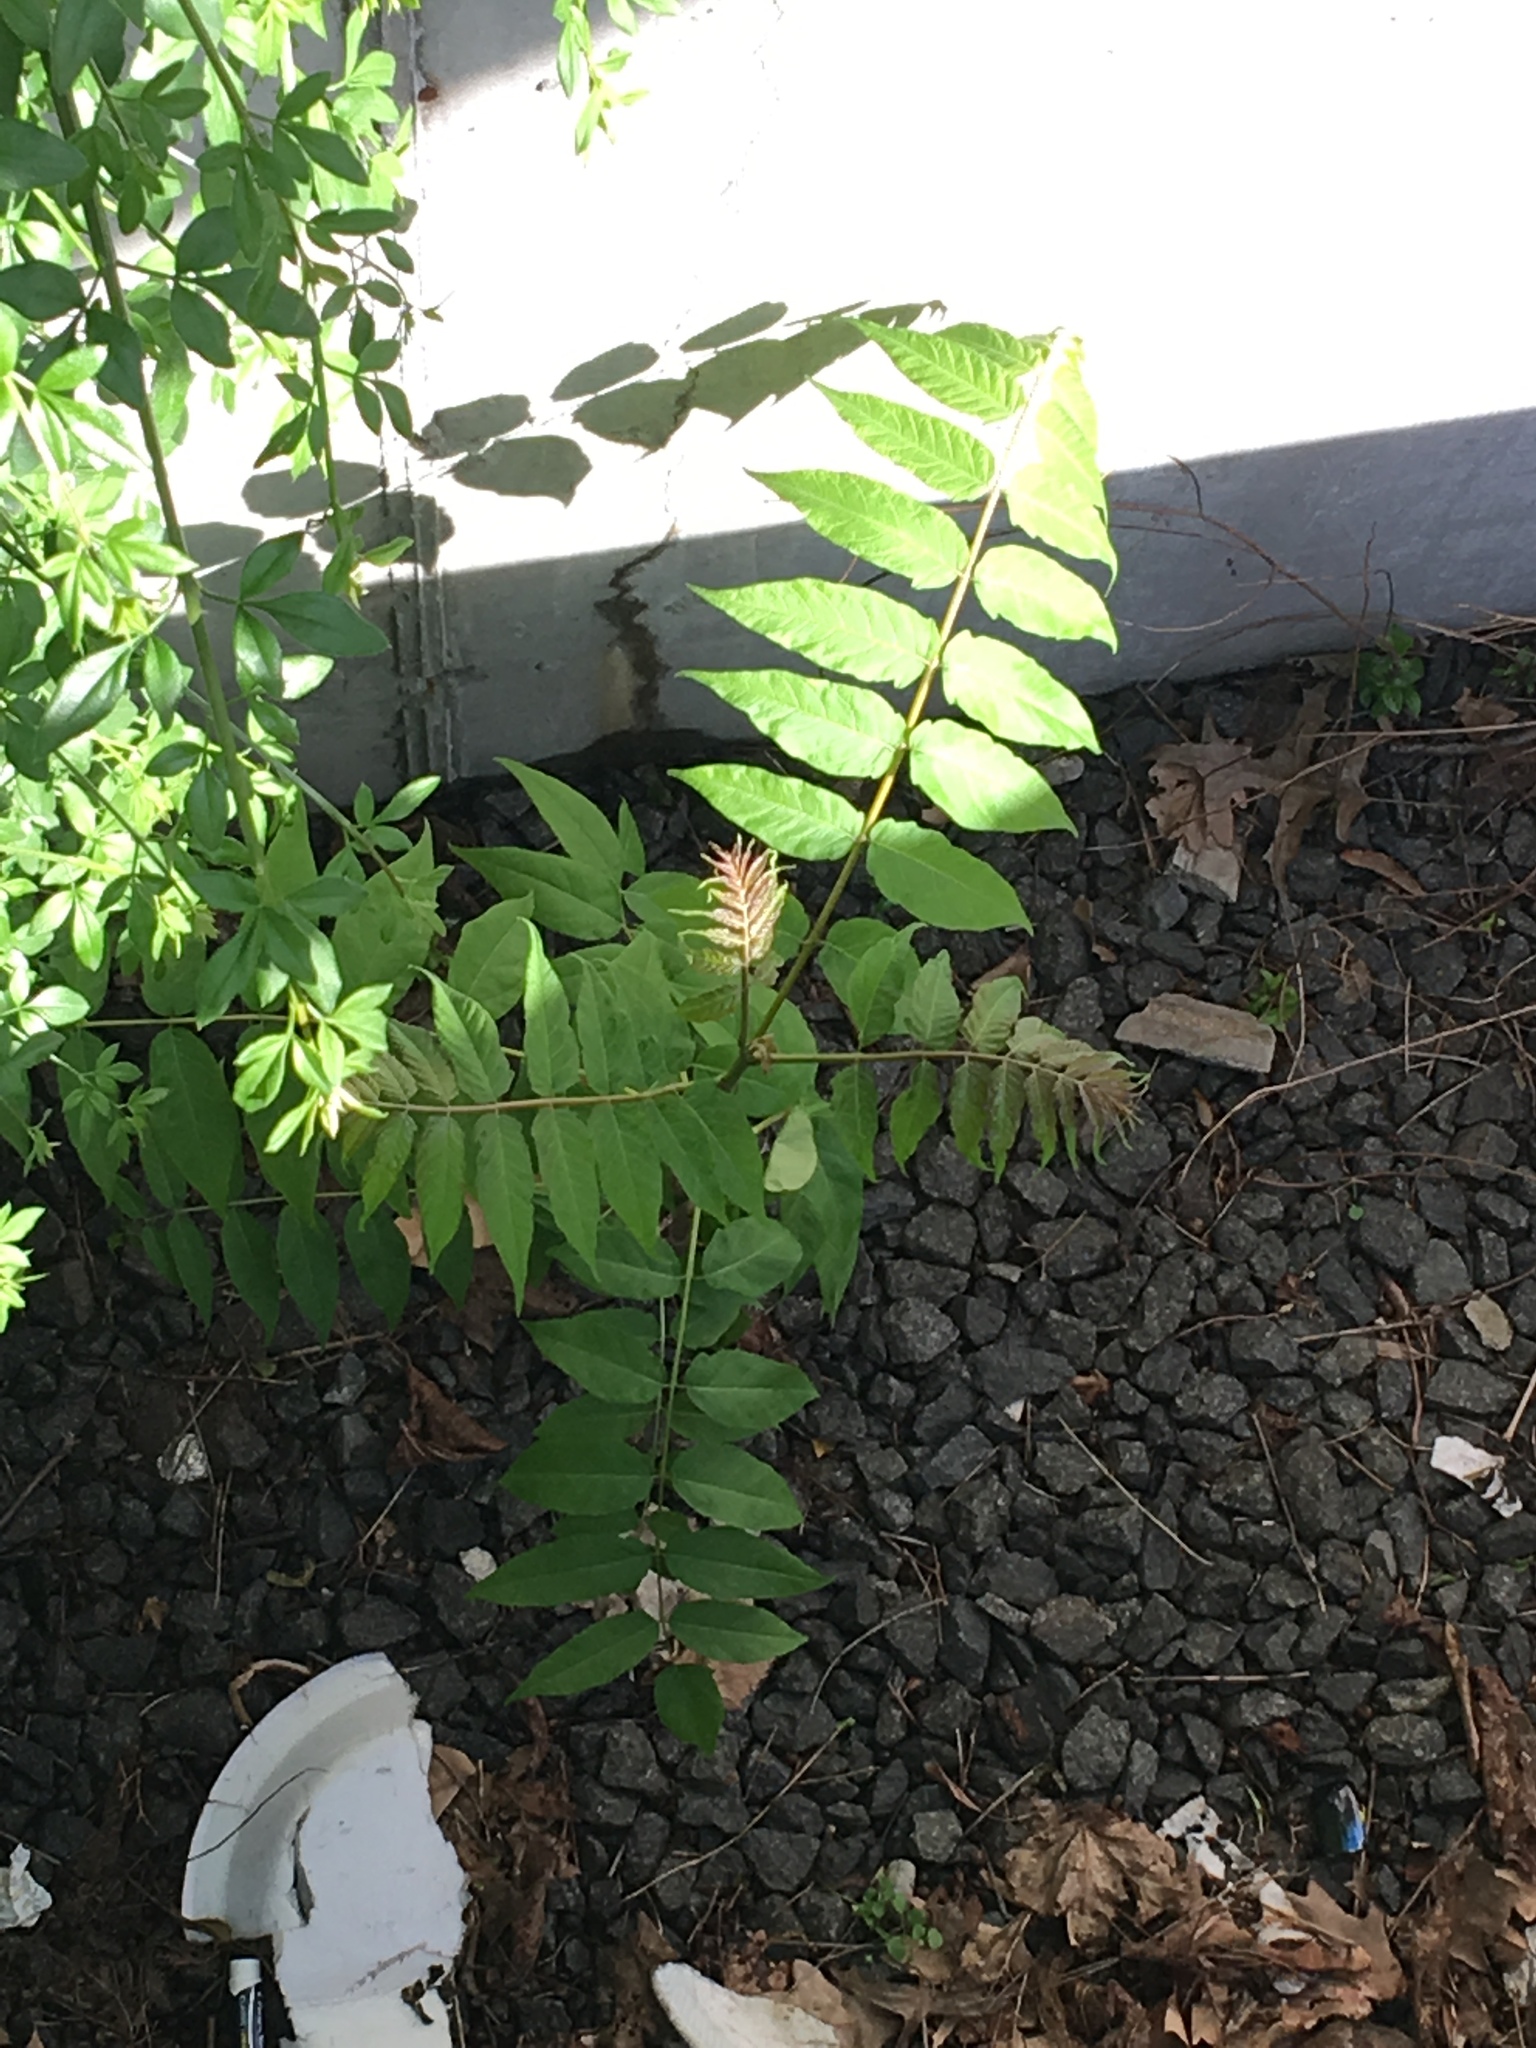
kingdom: Plantae
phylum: Tracheophyta
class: Magnoliopsida
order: Sapindales
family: Simaroubaceae
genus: Ailanthus
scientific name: Ailanthus altissima
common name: Tree-of-heaven
